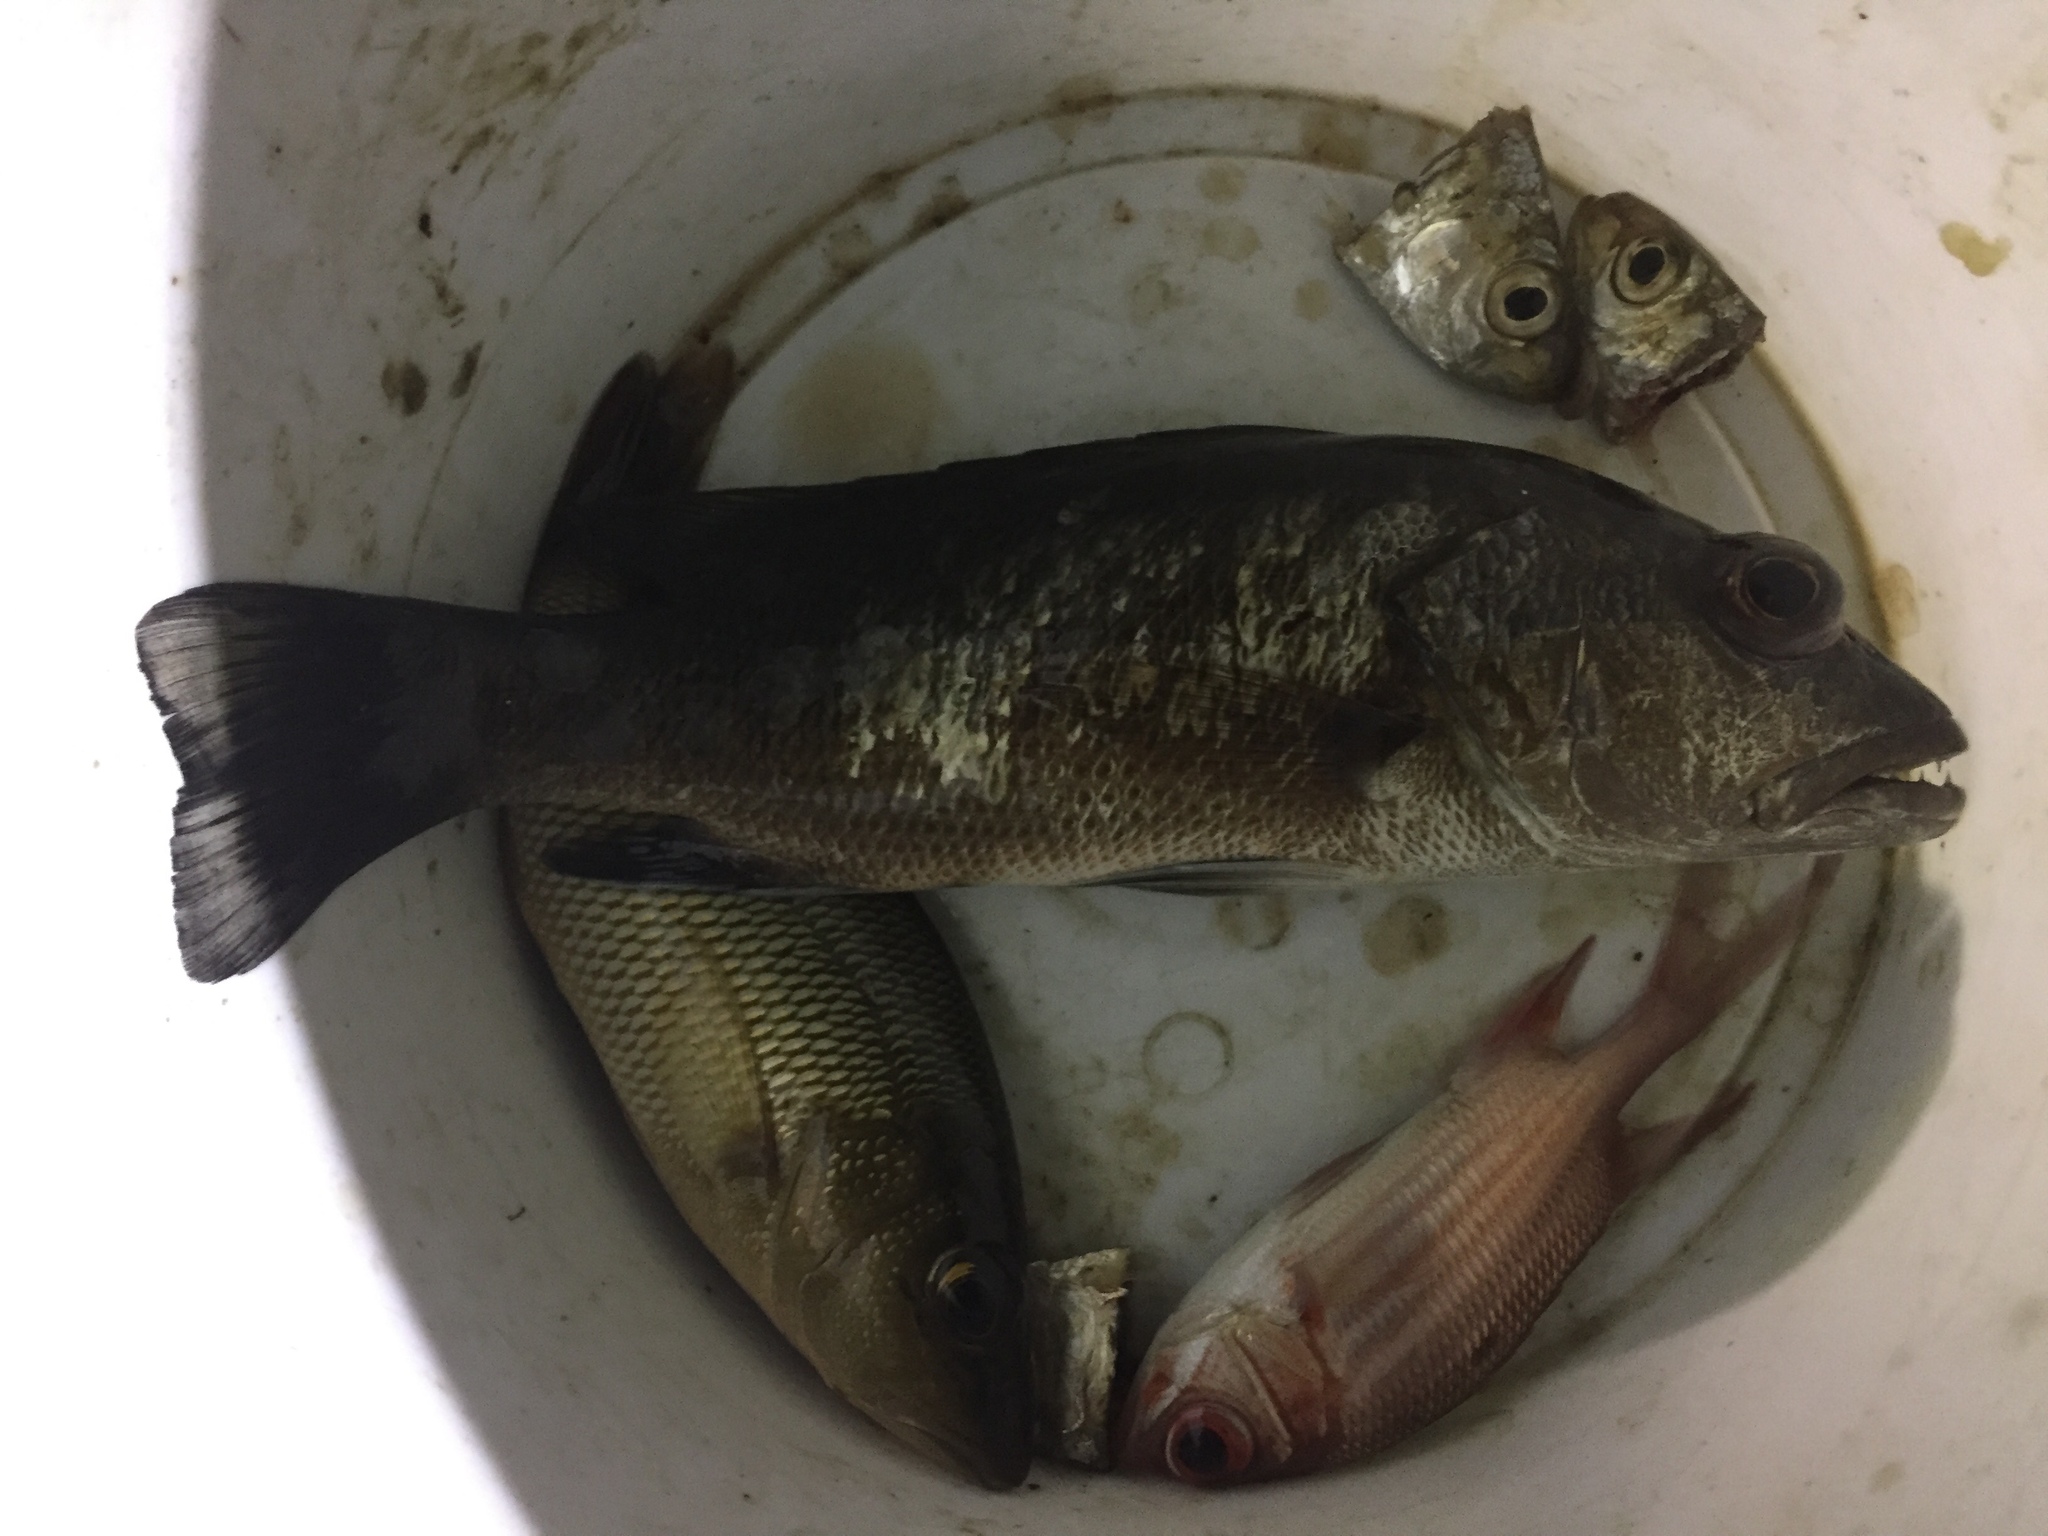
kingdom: Animalia
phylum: Chordata
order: Perciformes
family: Lutjanidae
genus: Lutjanus
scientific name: Lutjanus cyanopterus
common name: Cubera snapper
